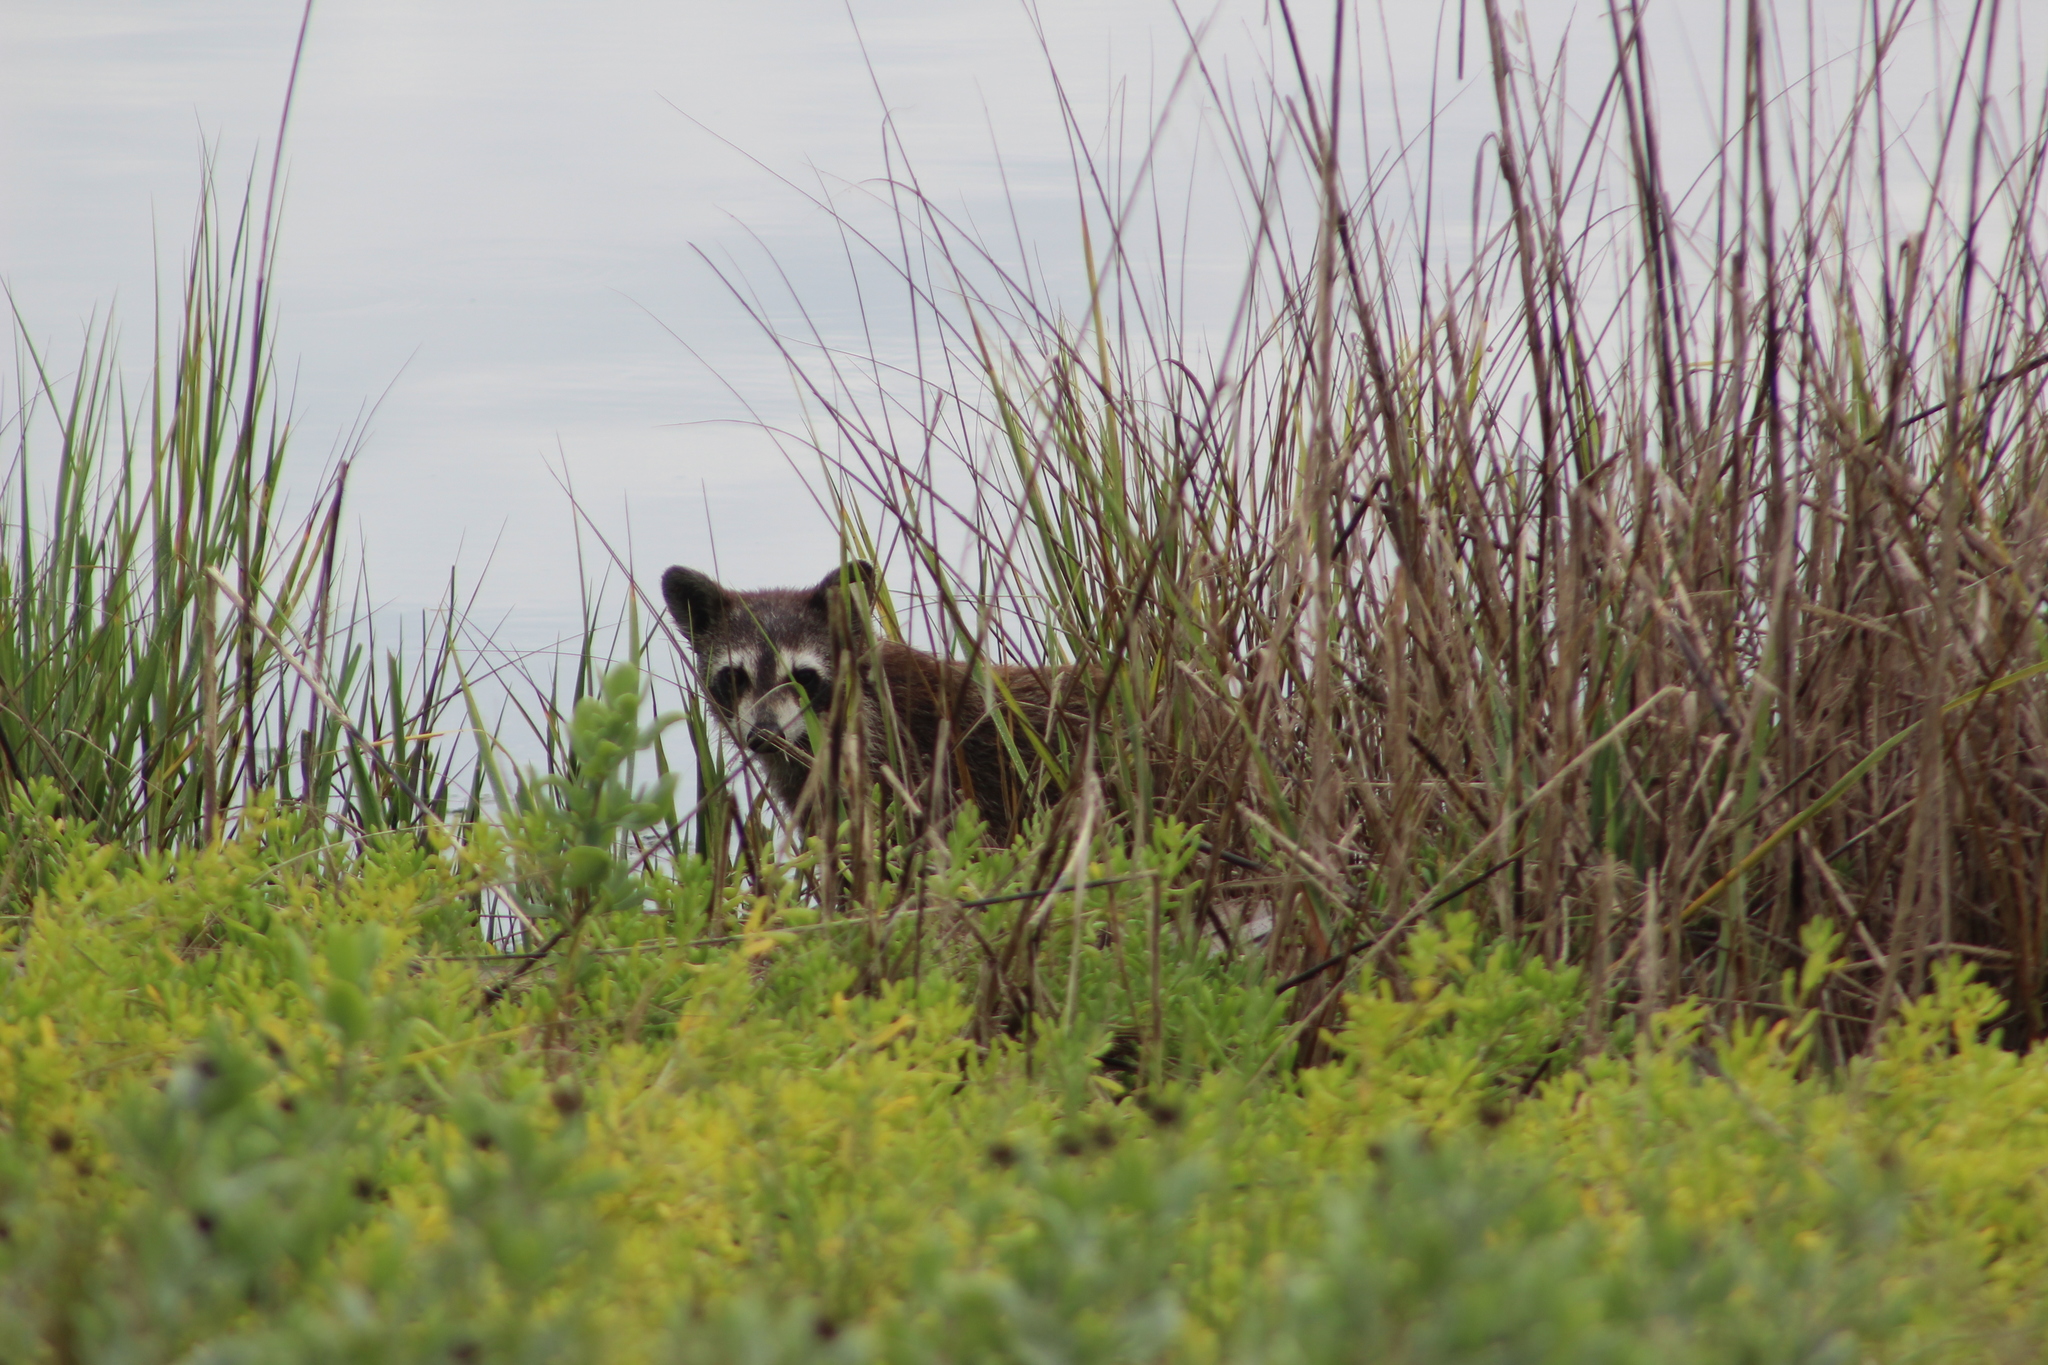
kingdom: Animalia
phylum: Chordata
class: Mammalia
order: Carnivora
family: Procyonidae
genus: Procyon
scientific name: Procyon lotor
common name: Raccoon
